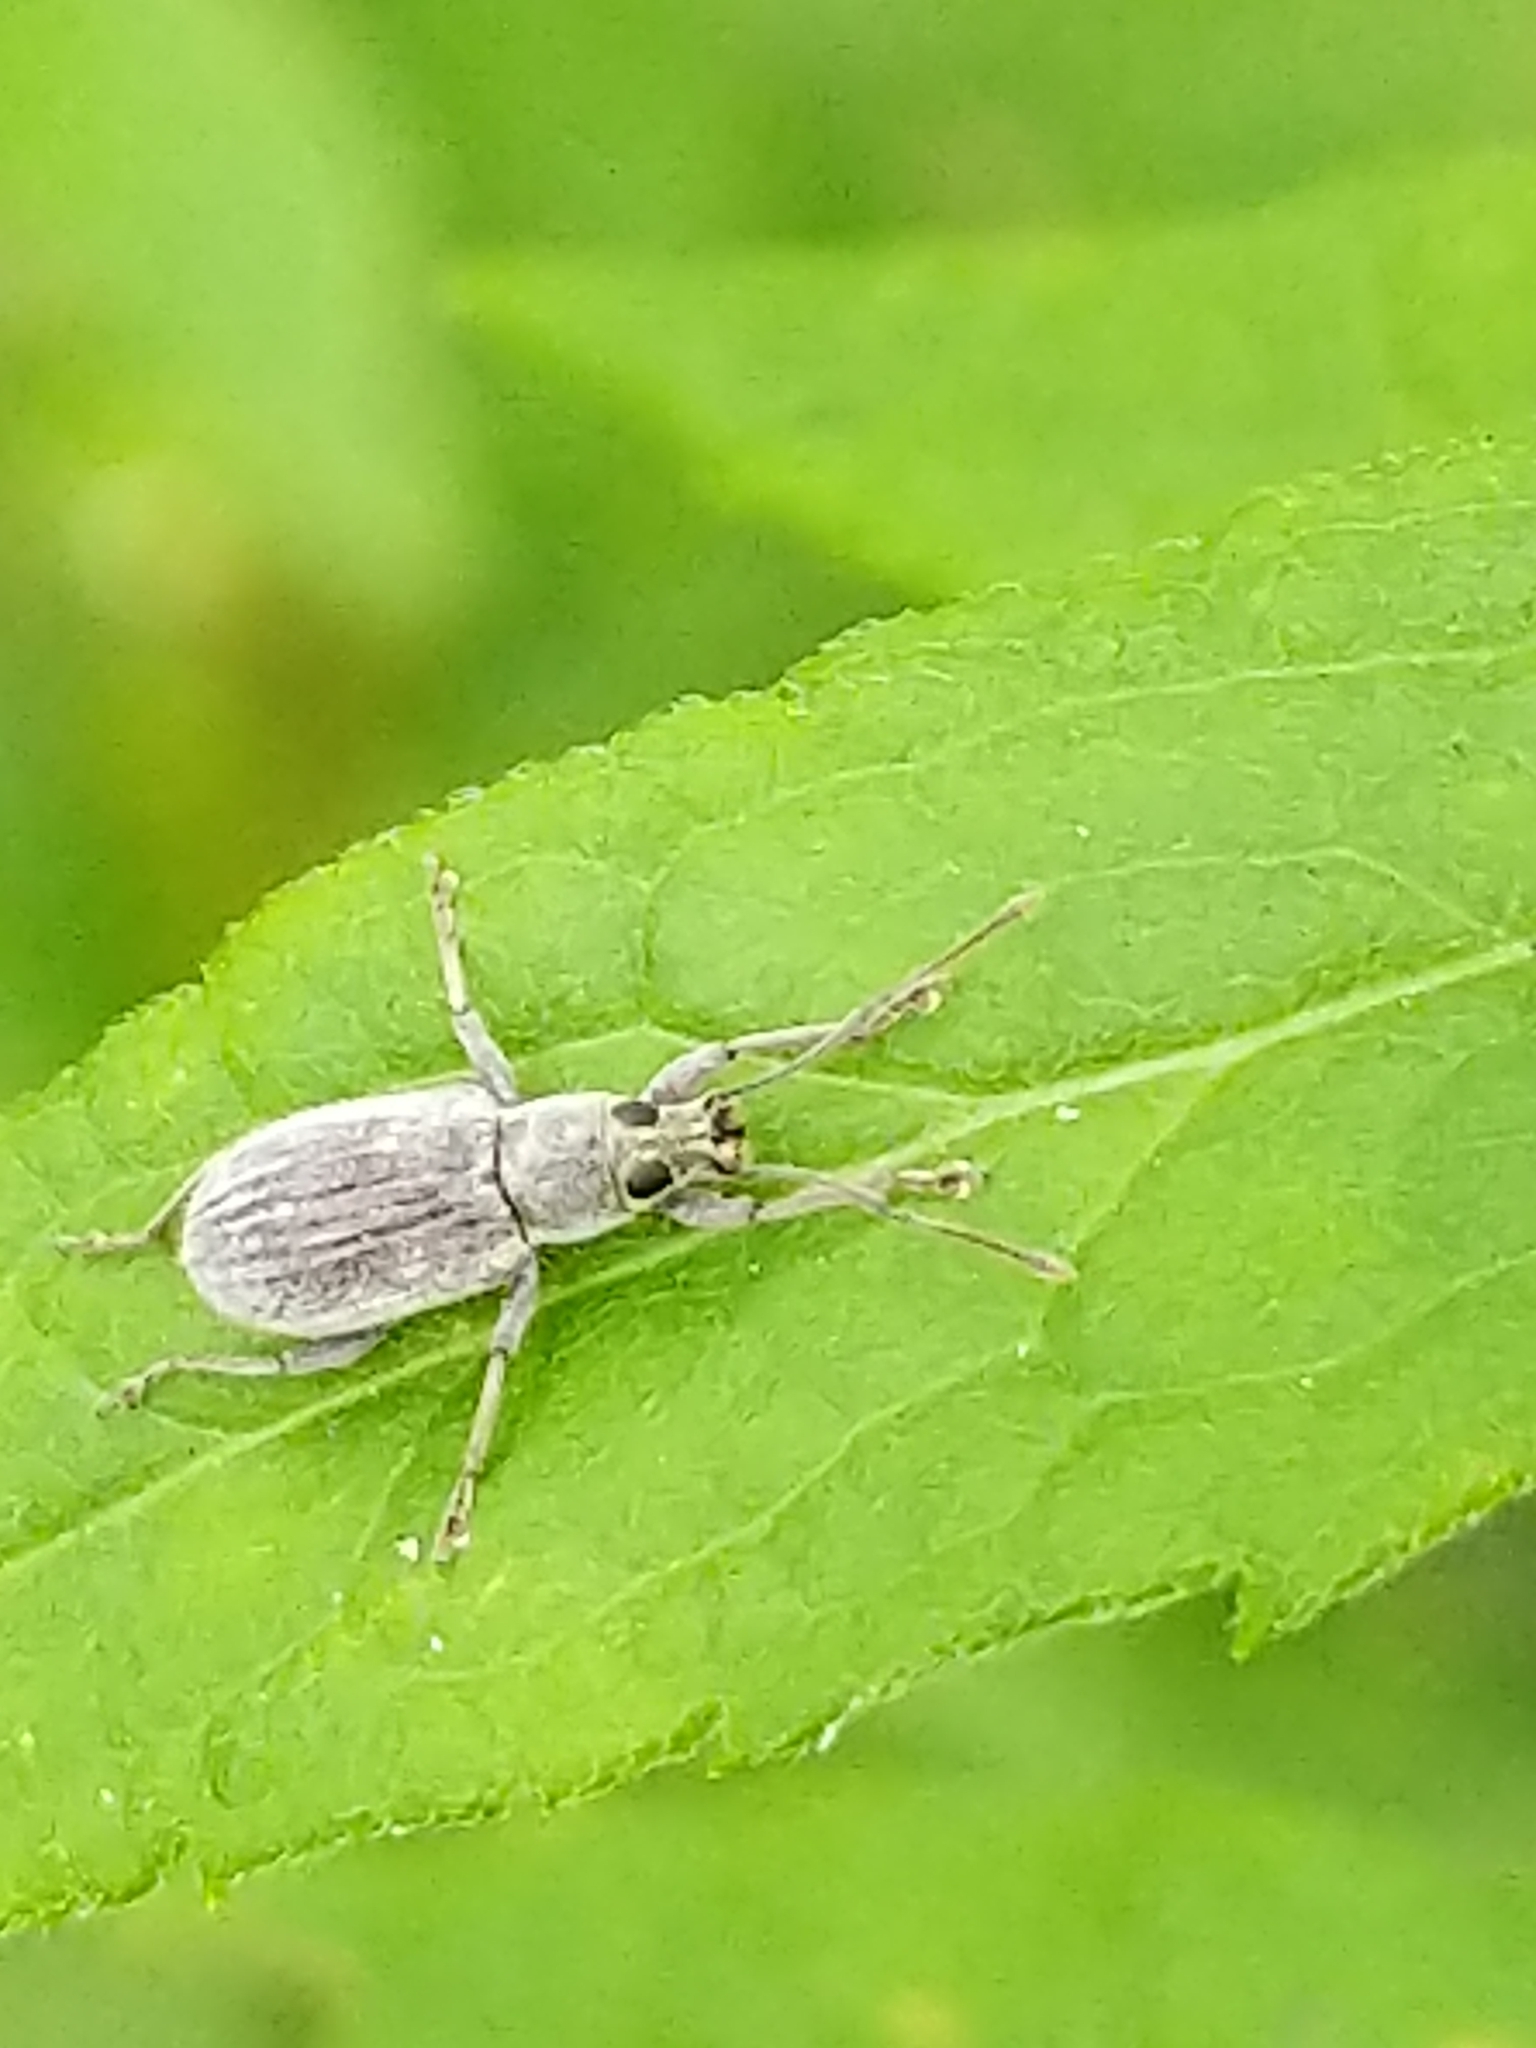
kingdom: Animalia
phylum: Arthropoda
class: Insecta
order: Coleoptera
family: Curculionidae
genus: Cyrtepistomus
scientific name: Cyrtepistomus castaneus
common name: Weevil
